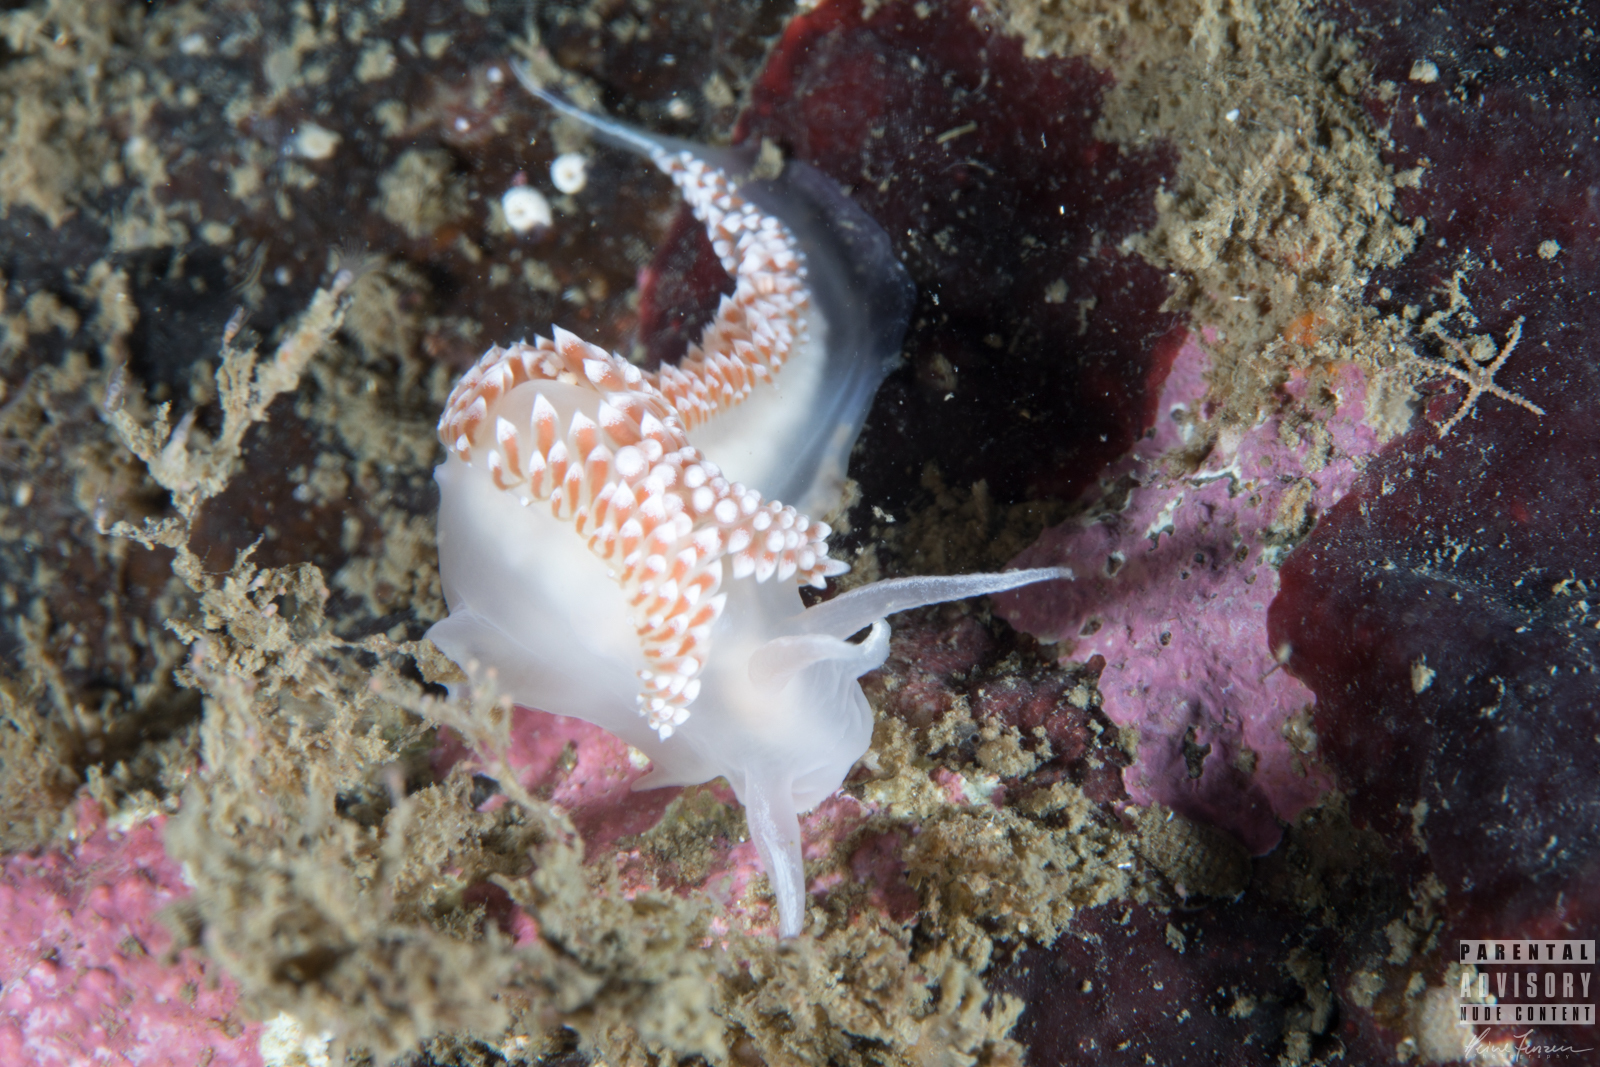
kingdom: Animalia
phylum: Mollusca
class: Gastropoda
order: Nudibranchia
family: Coryphellidae
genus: Coryphella
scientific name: Coryphella verrucosa
